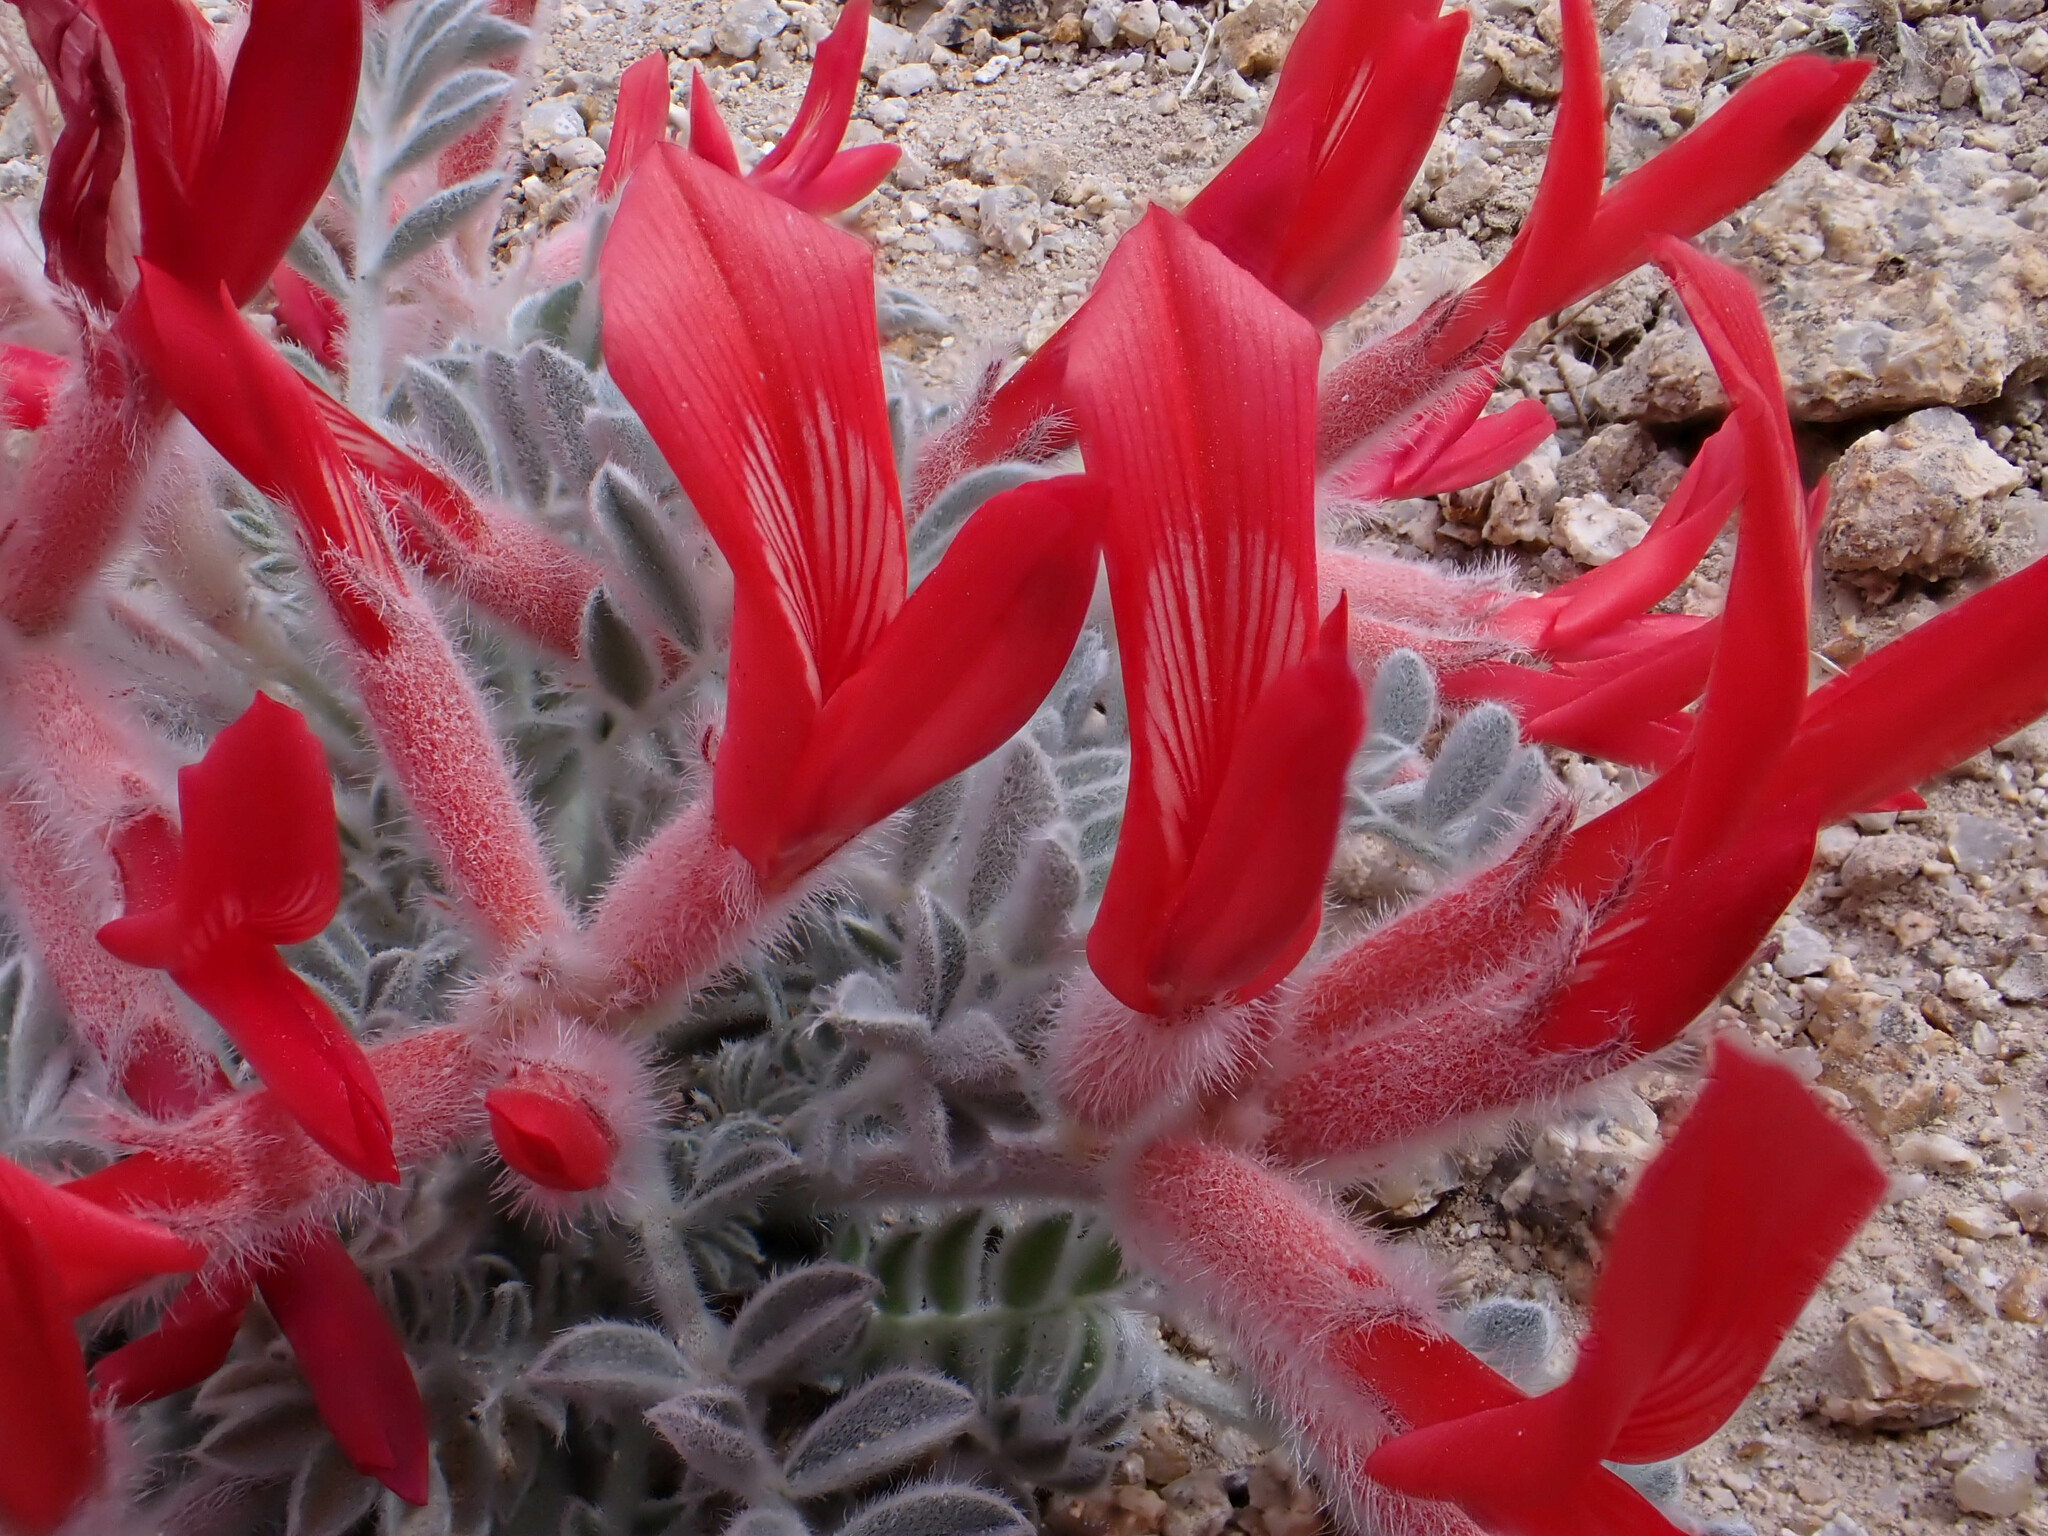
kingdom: Plantae
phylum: Tracheophyta
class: Magnoliopsida
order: Fabales
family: Fabaceae
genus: Astragalus
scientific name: Astragalus coccineus
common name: Scarlet milk-vetch
